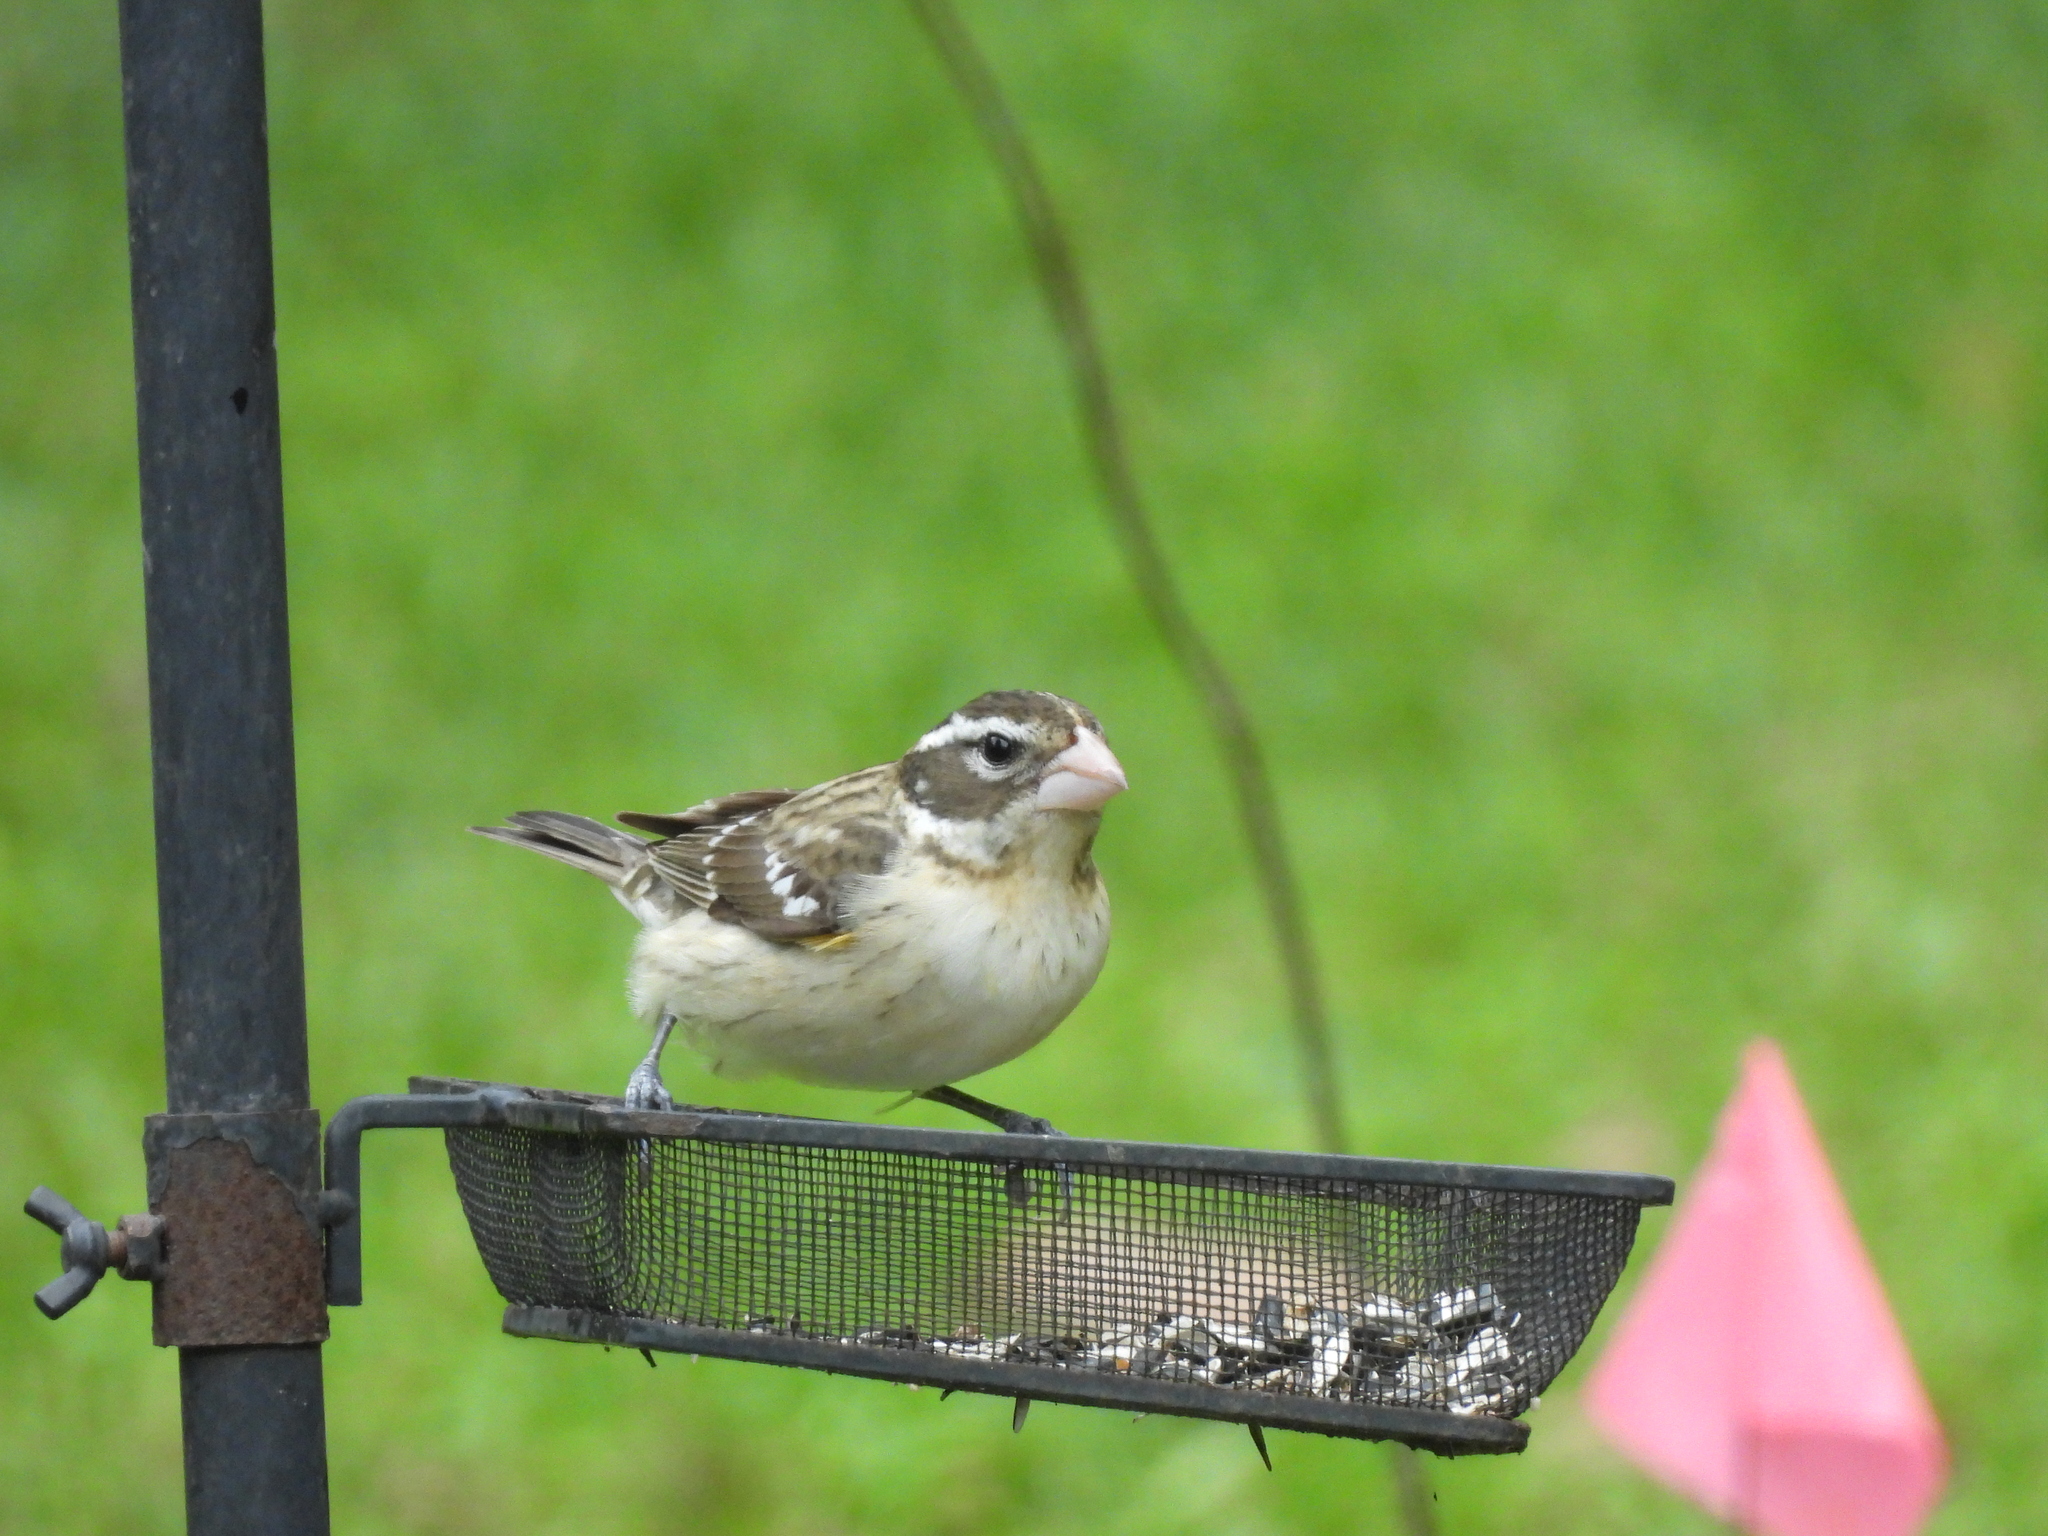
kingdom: Animalia
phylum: Chordata
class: Aves
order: Passeriformes
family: Cardinalidae
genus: Pheucticus
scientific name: Pheucticus ludovicianus
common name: Rose-breasted grosbeak
